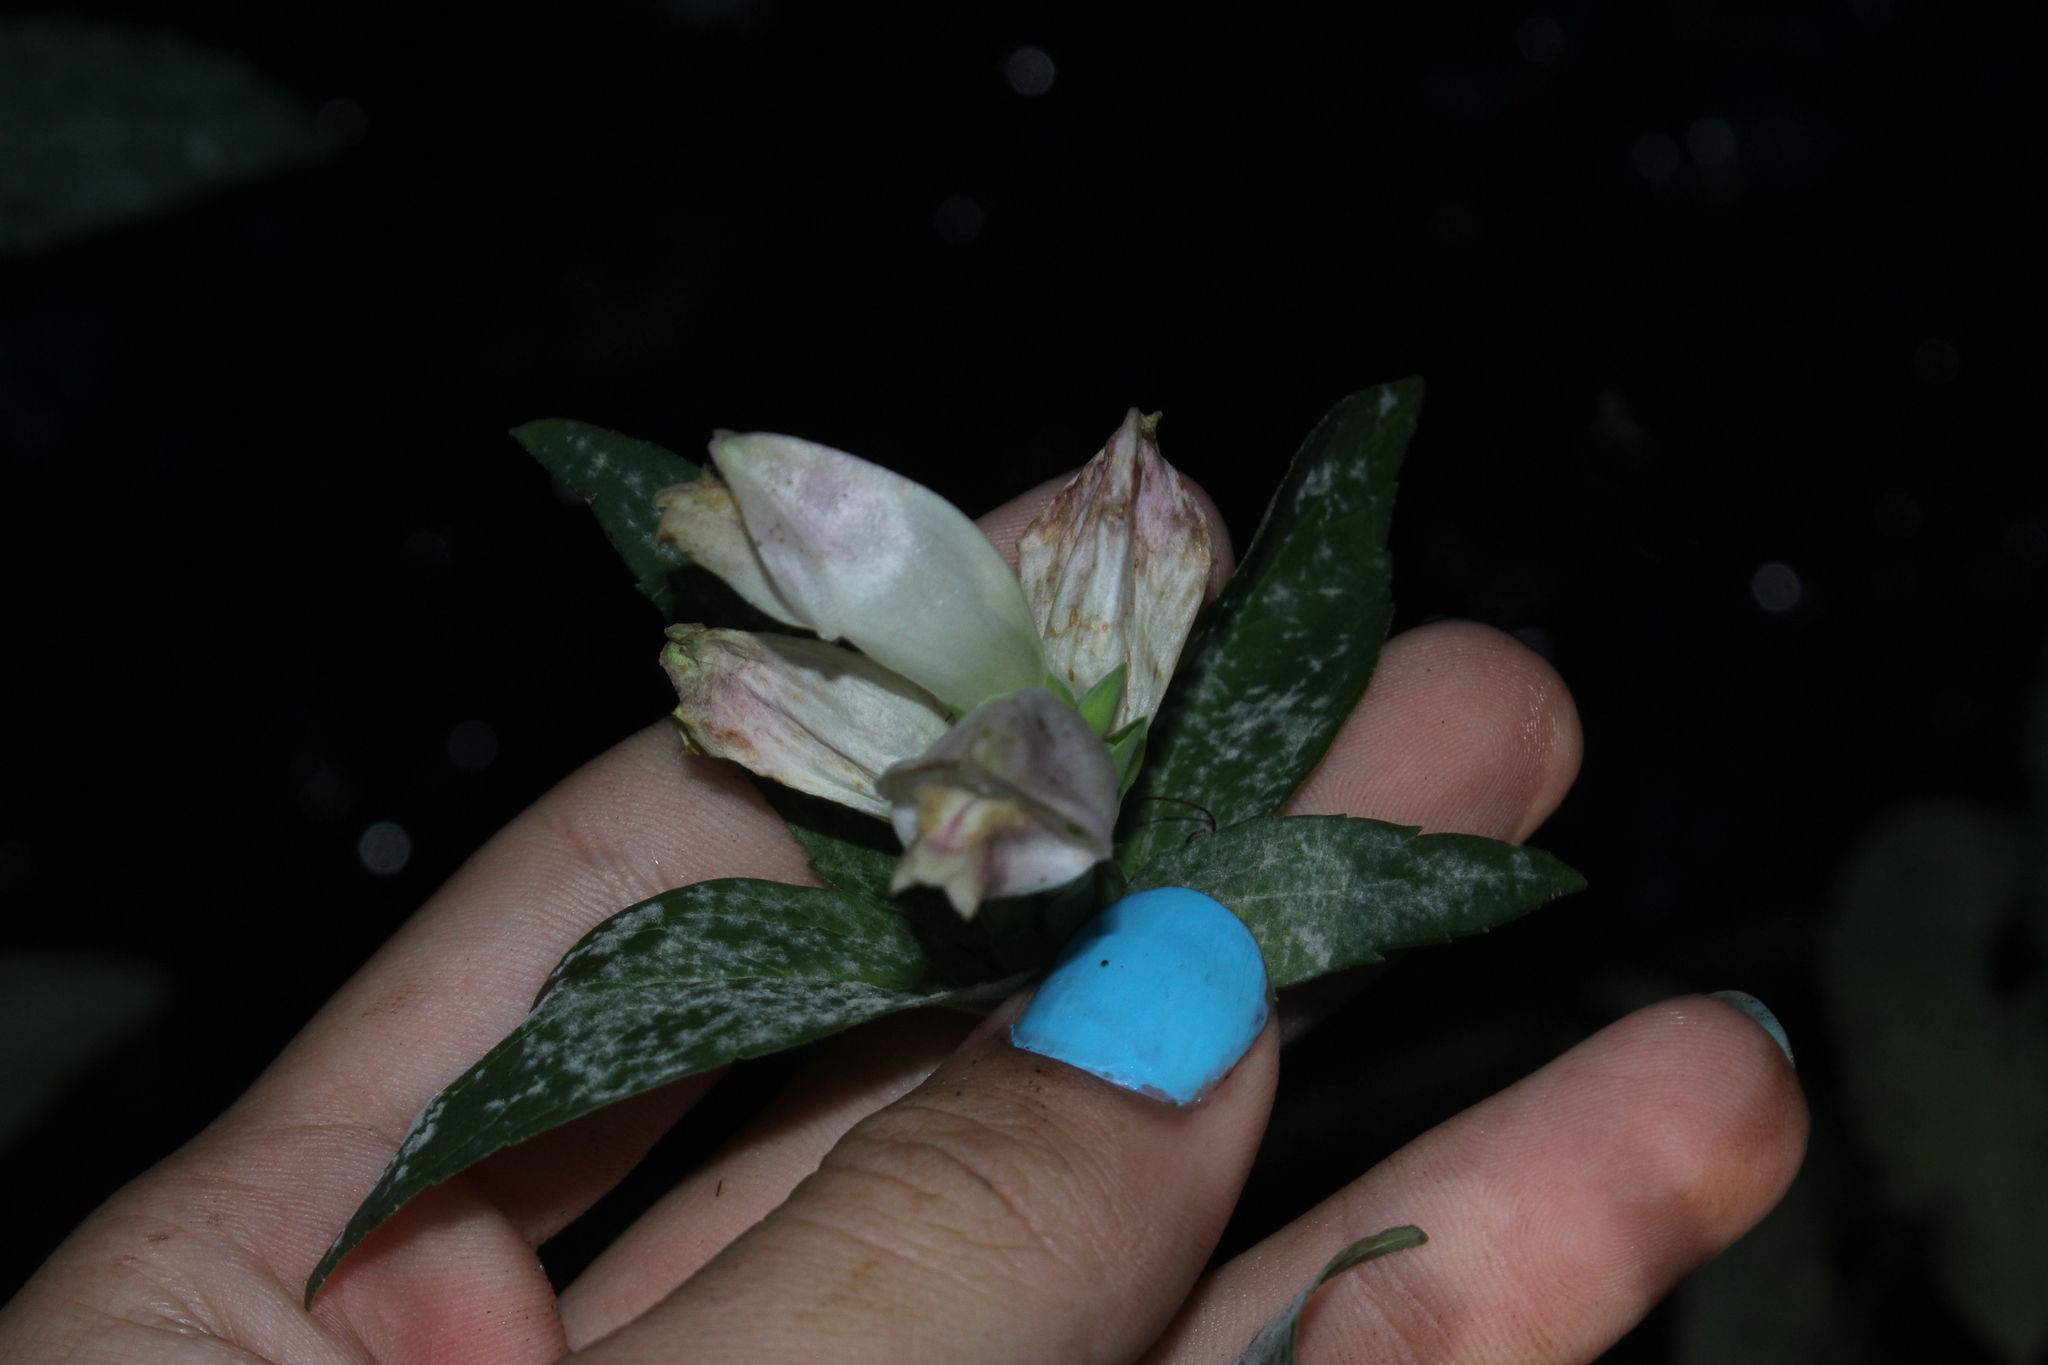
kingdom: Plantae
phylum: Tracheophyta
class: Magnoliopsida
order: Lamiales
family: Plantaginaceae
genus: Chelone
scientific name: Chelone glabra
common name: Snakehead
